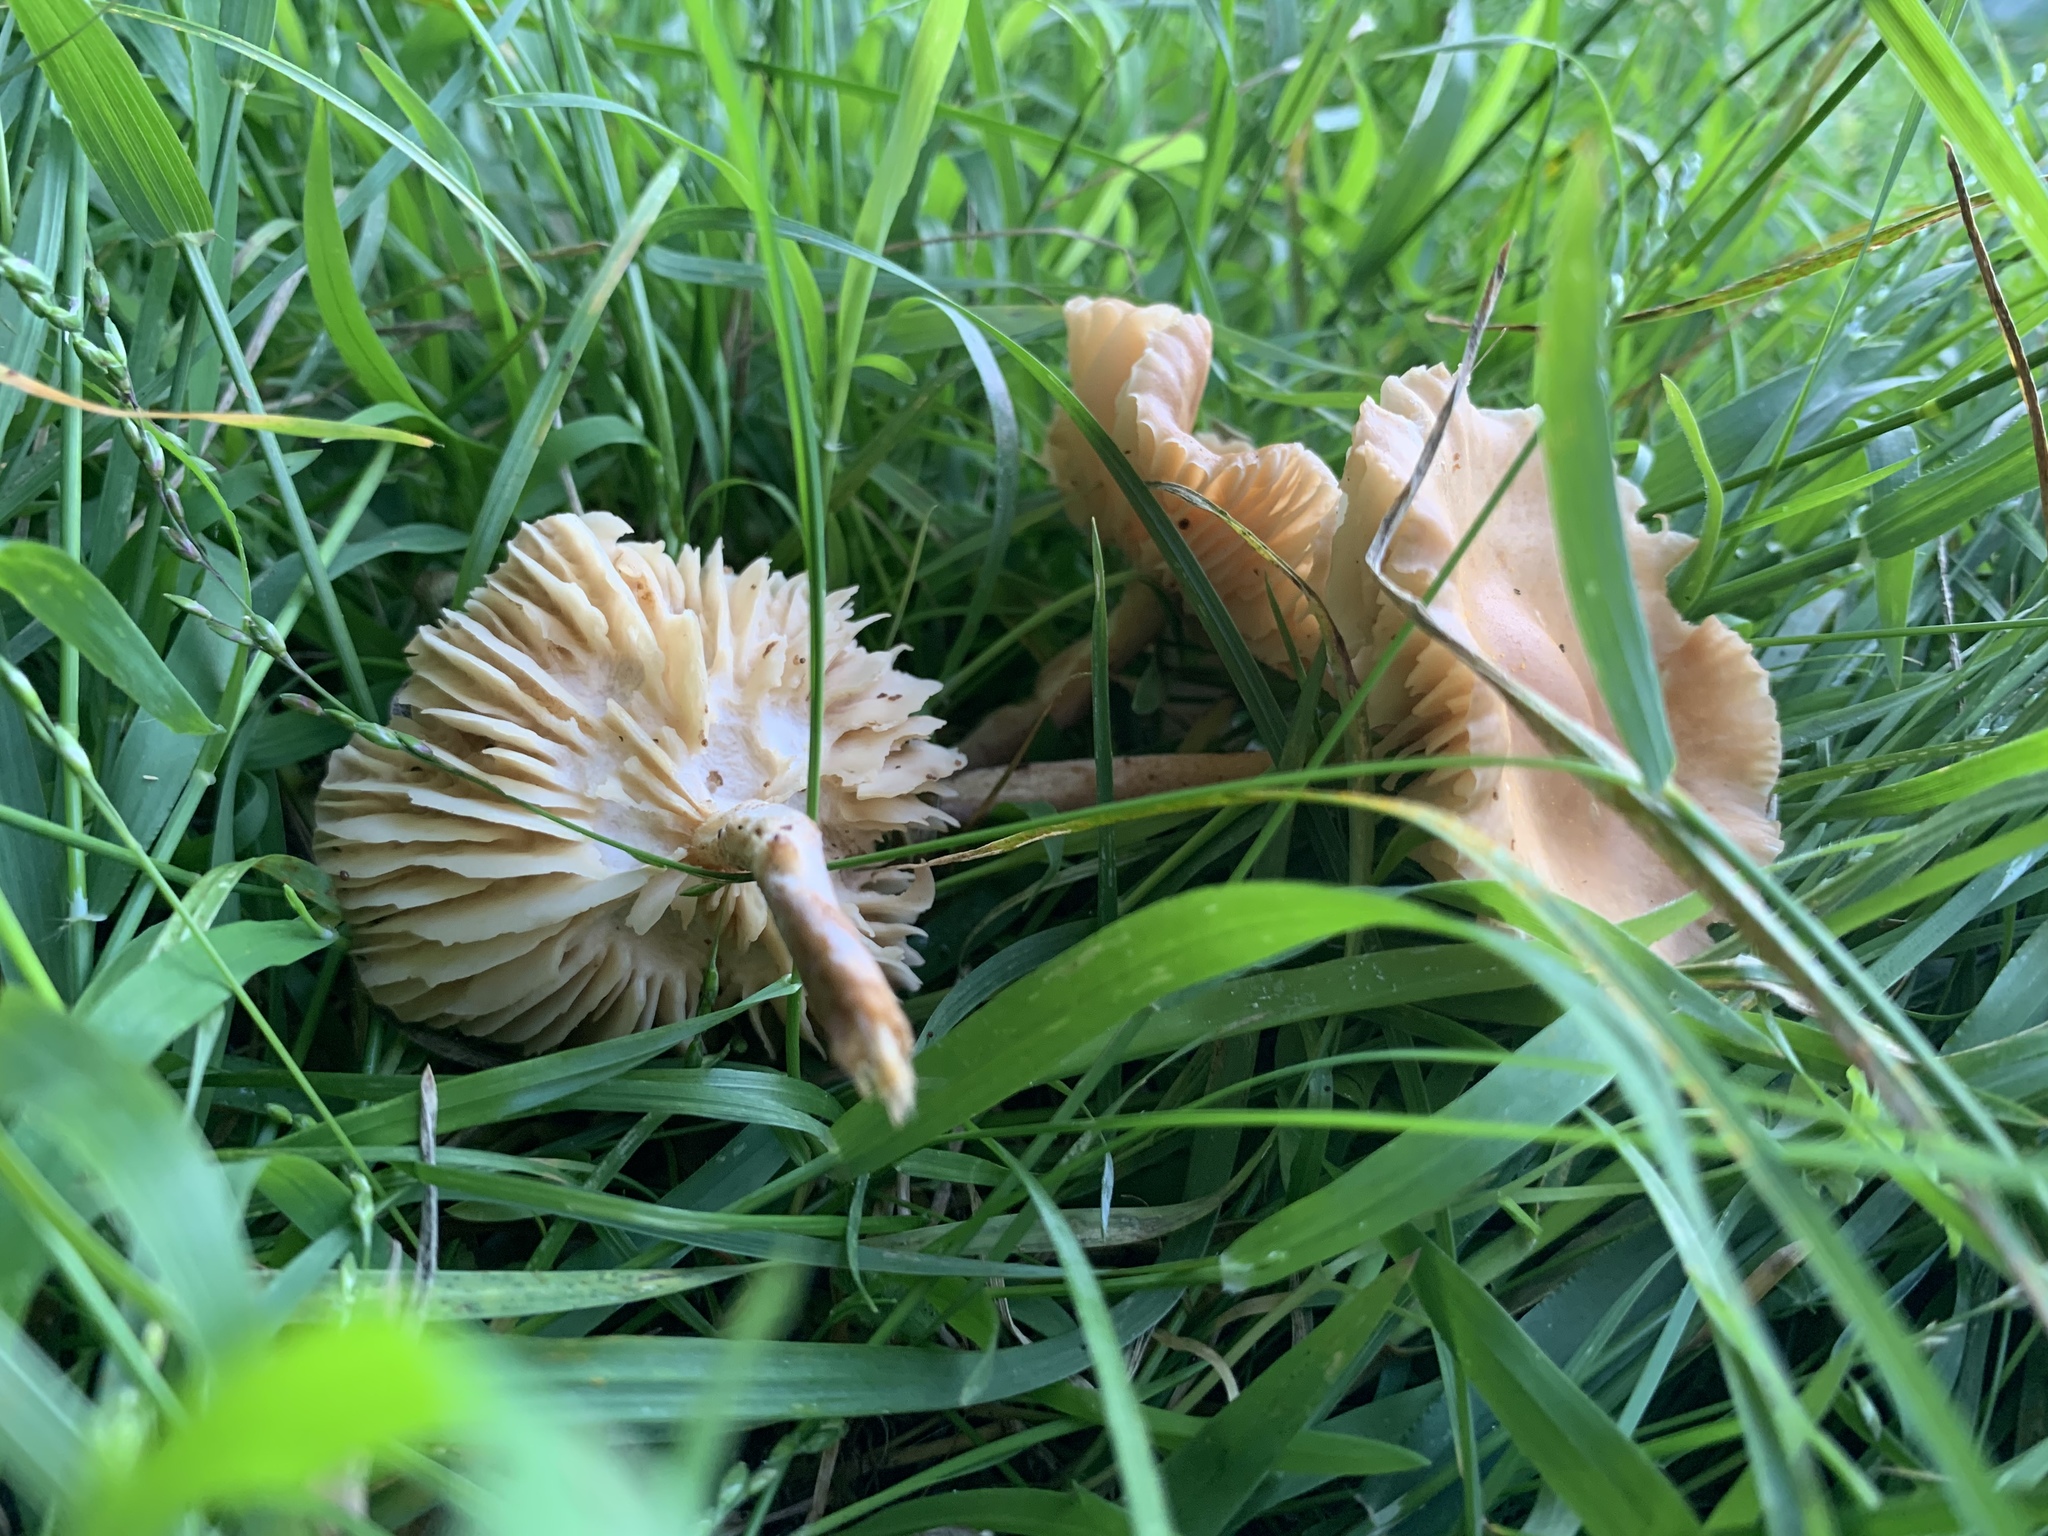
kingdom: Fungi
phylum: Basidiomycota
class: Agaricomycetes
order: Agaricales
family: Marasmiaceae
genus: Marasmius
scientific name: Marasmius oreades
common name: Fairy ring champignon
